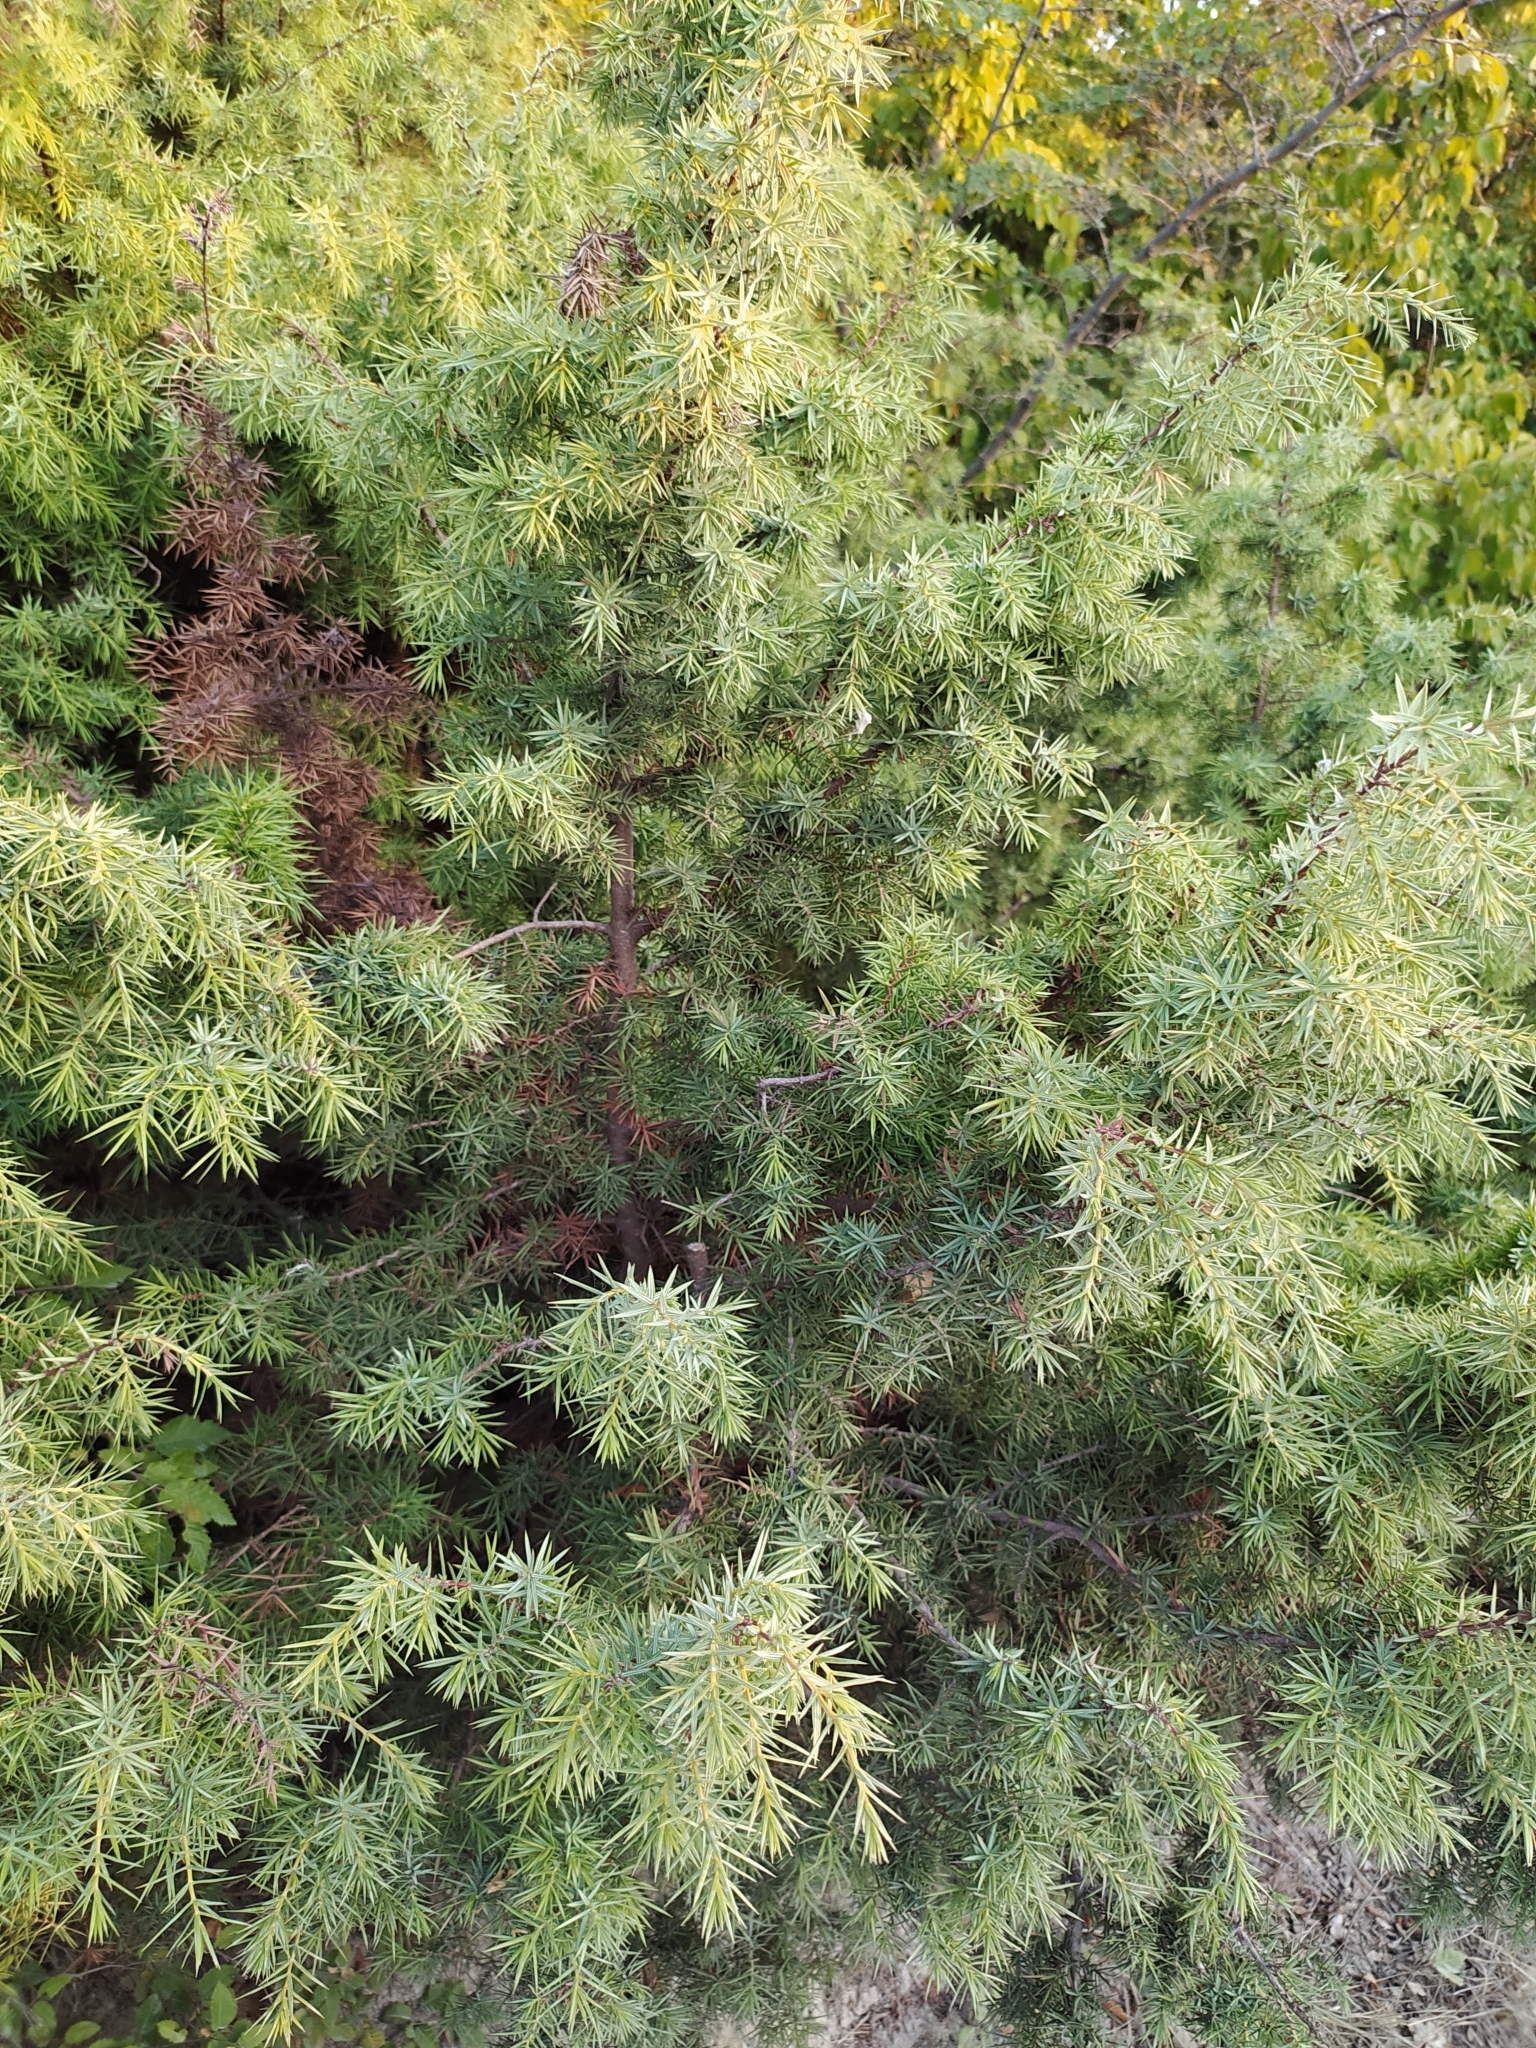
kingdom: Plantae
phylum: Tracheophyta
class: Pinopsida
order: Pinales
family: Cupressaceae
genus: Juniperus
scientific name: Juniperus oxycedrus
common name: Prickly juniper
